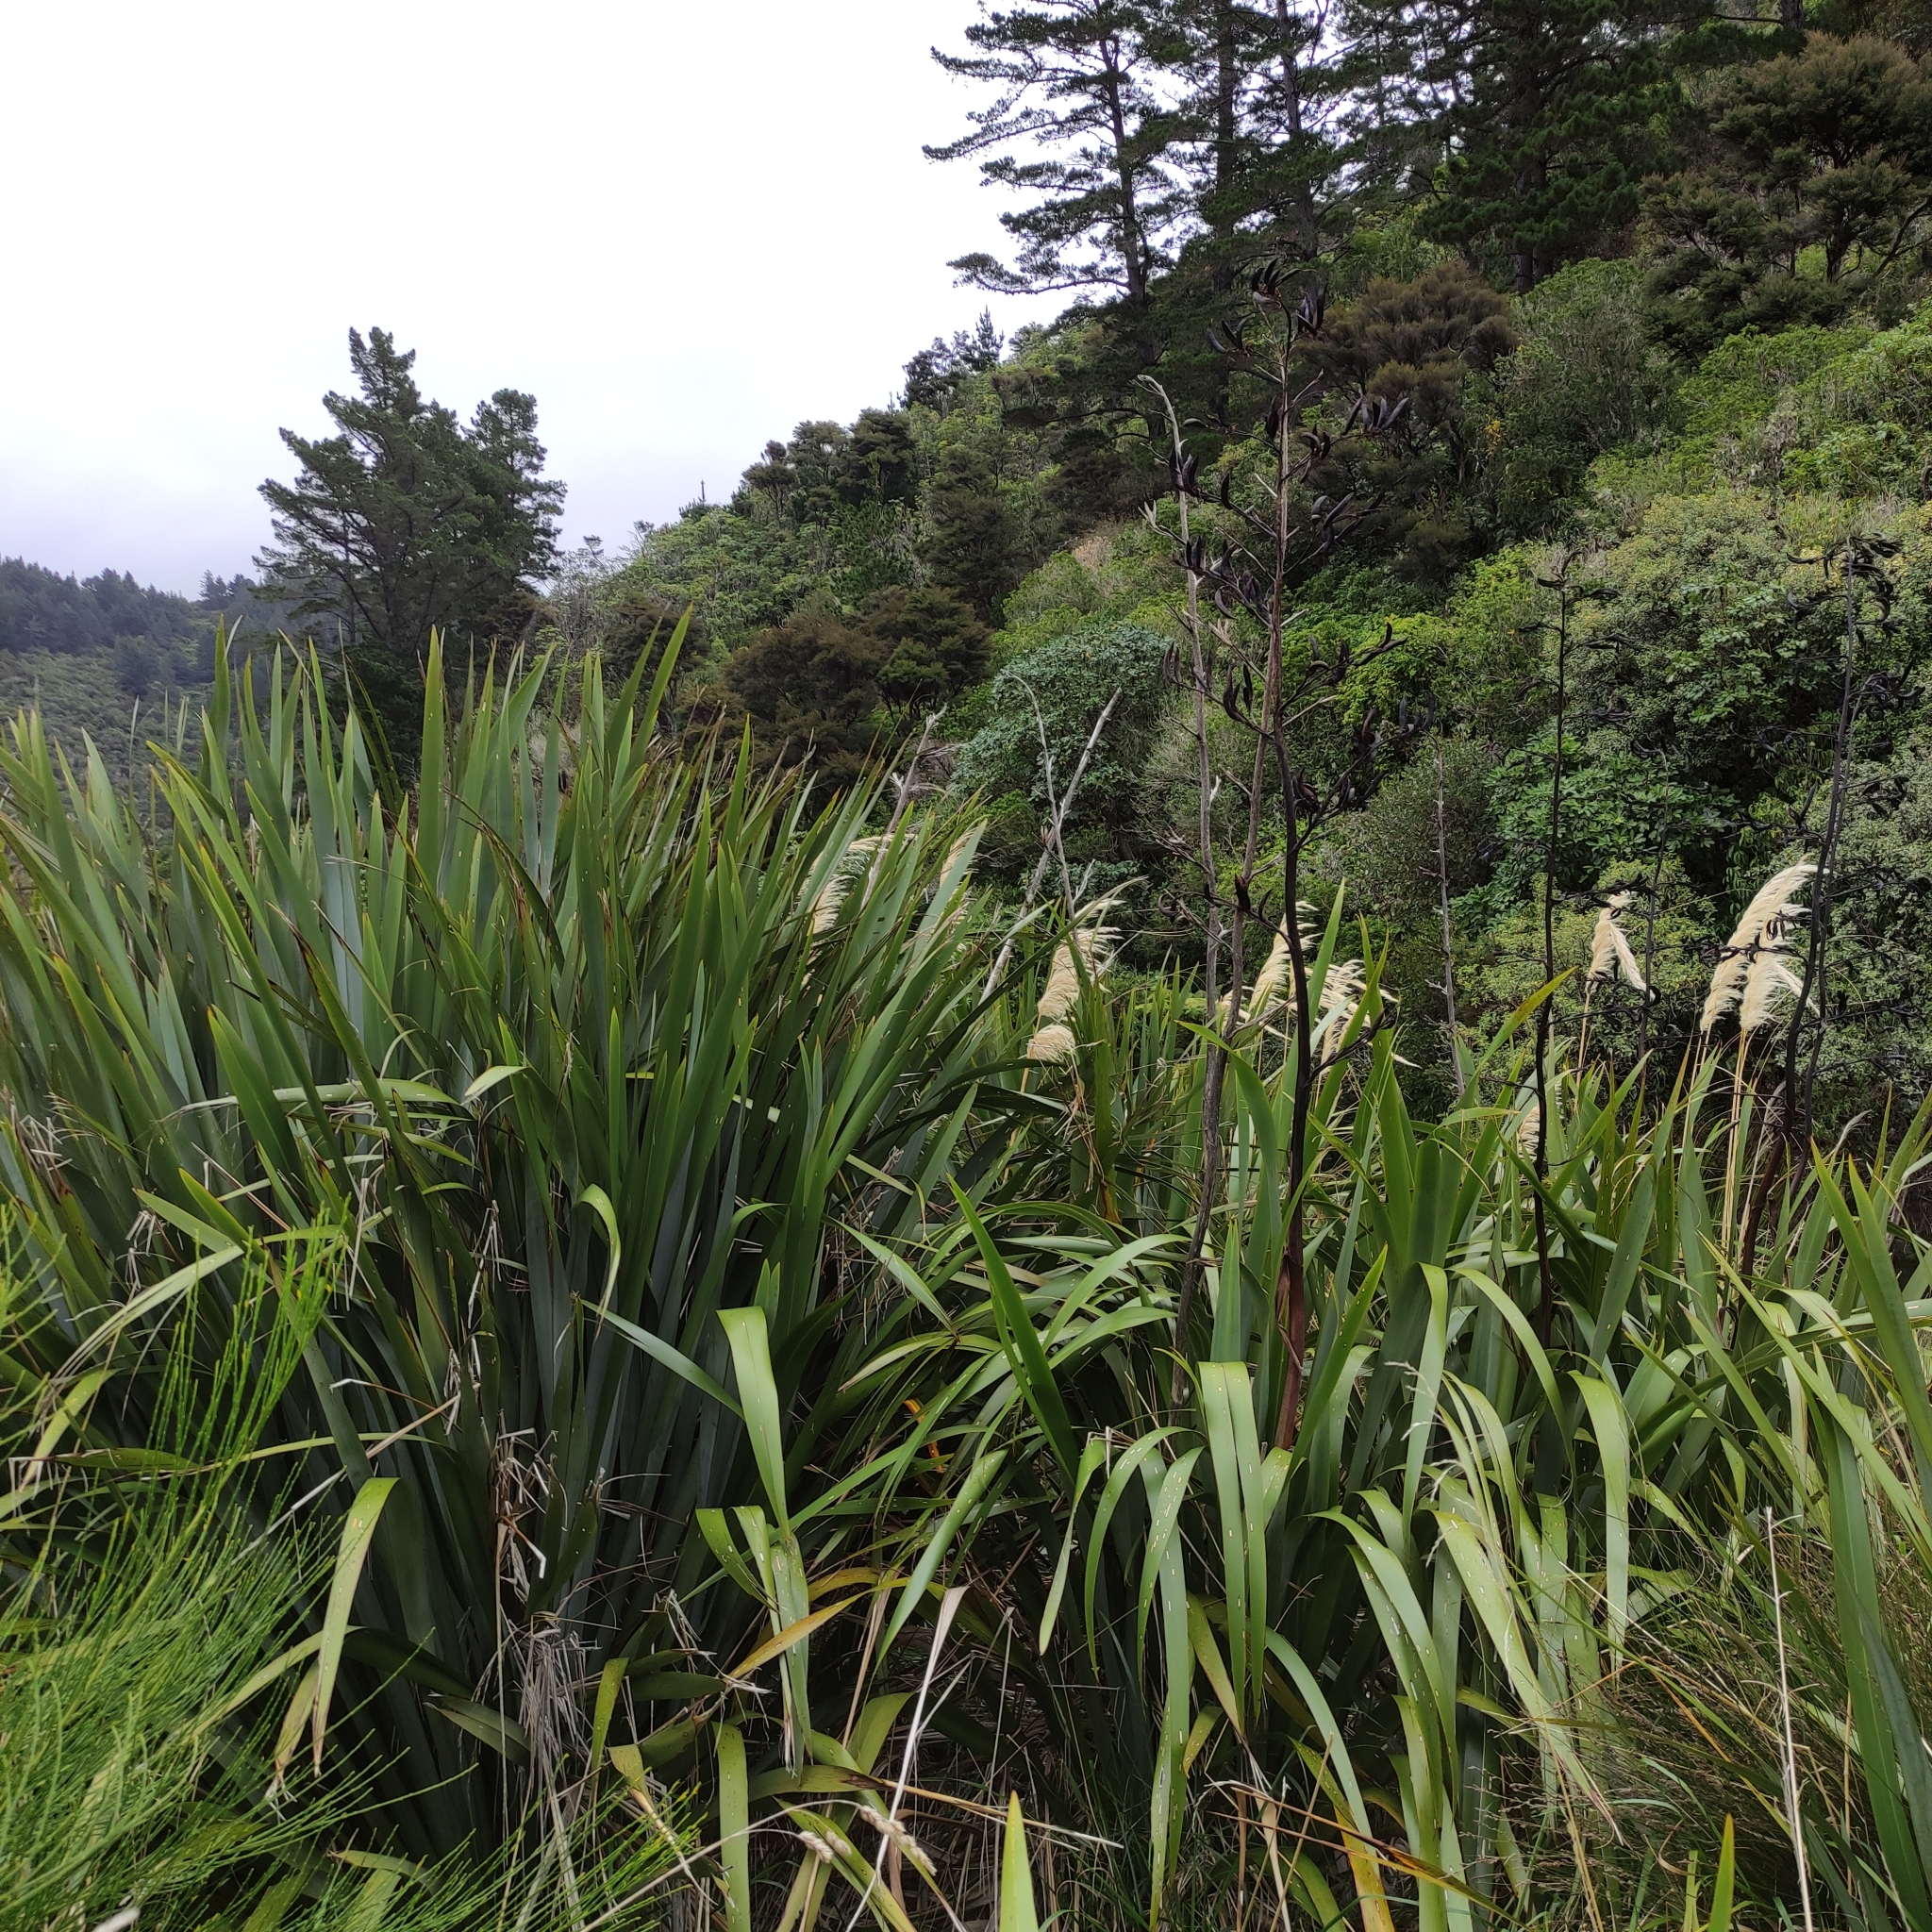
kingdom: Plantae
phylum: Tracheophyta
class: Liliopsida
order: Asparagales
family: Asphodelaceae
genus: Phormium
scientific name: Phormium tenax
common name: New zealand flax
